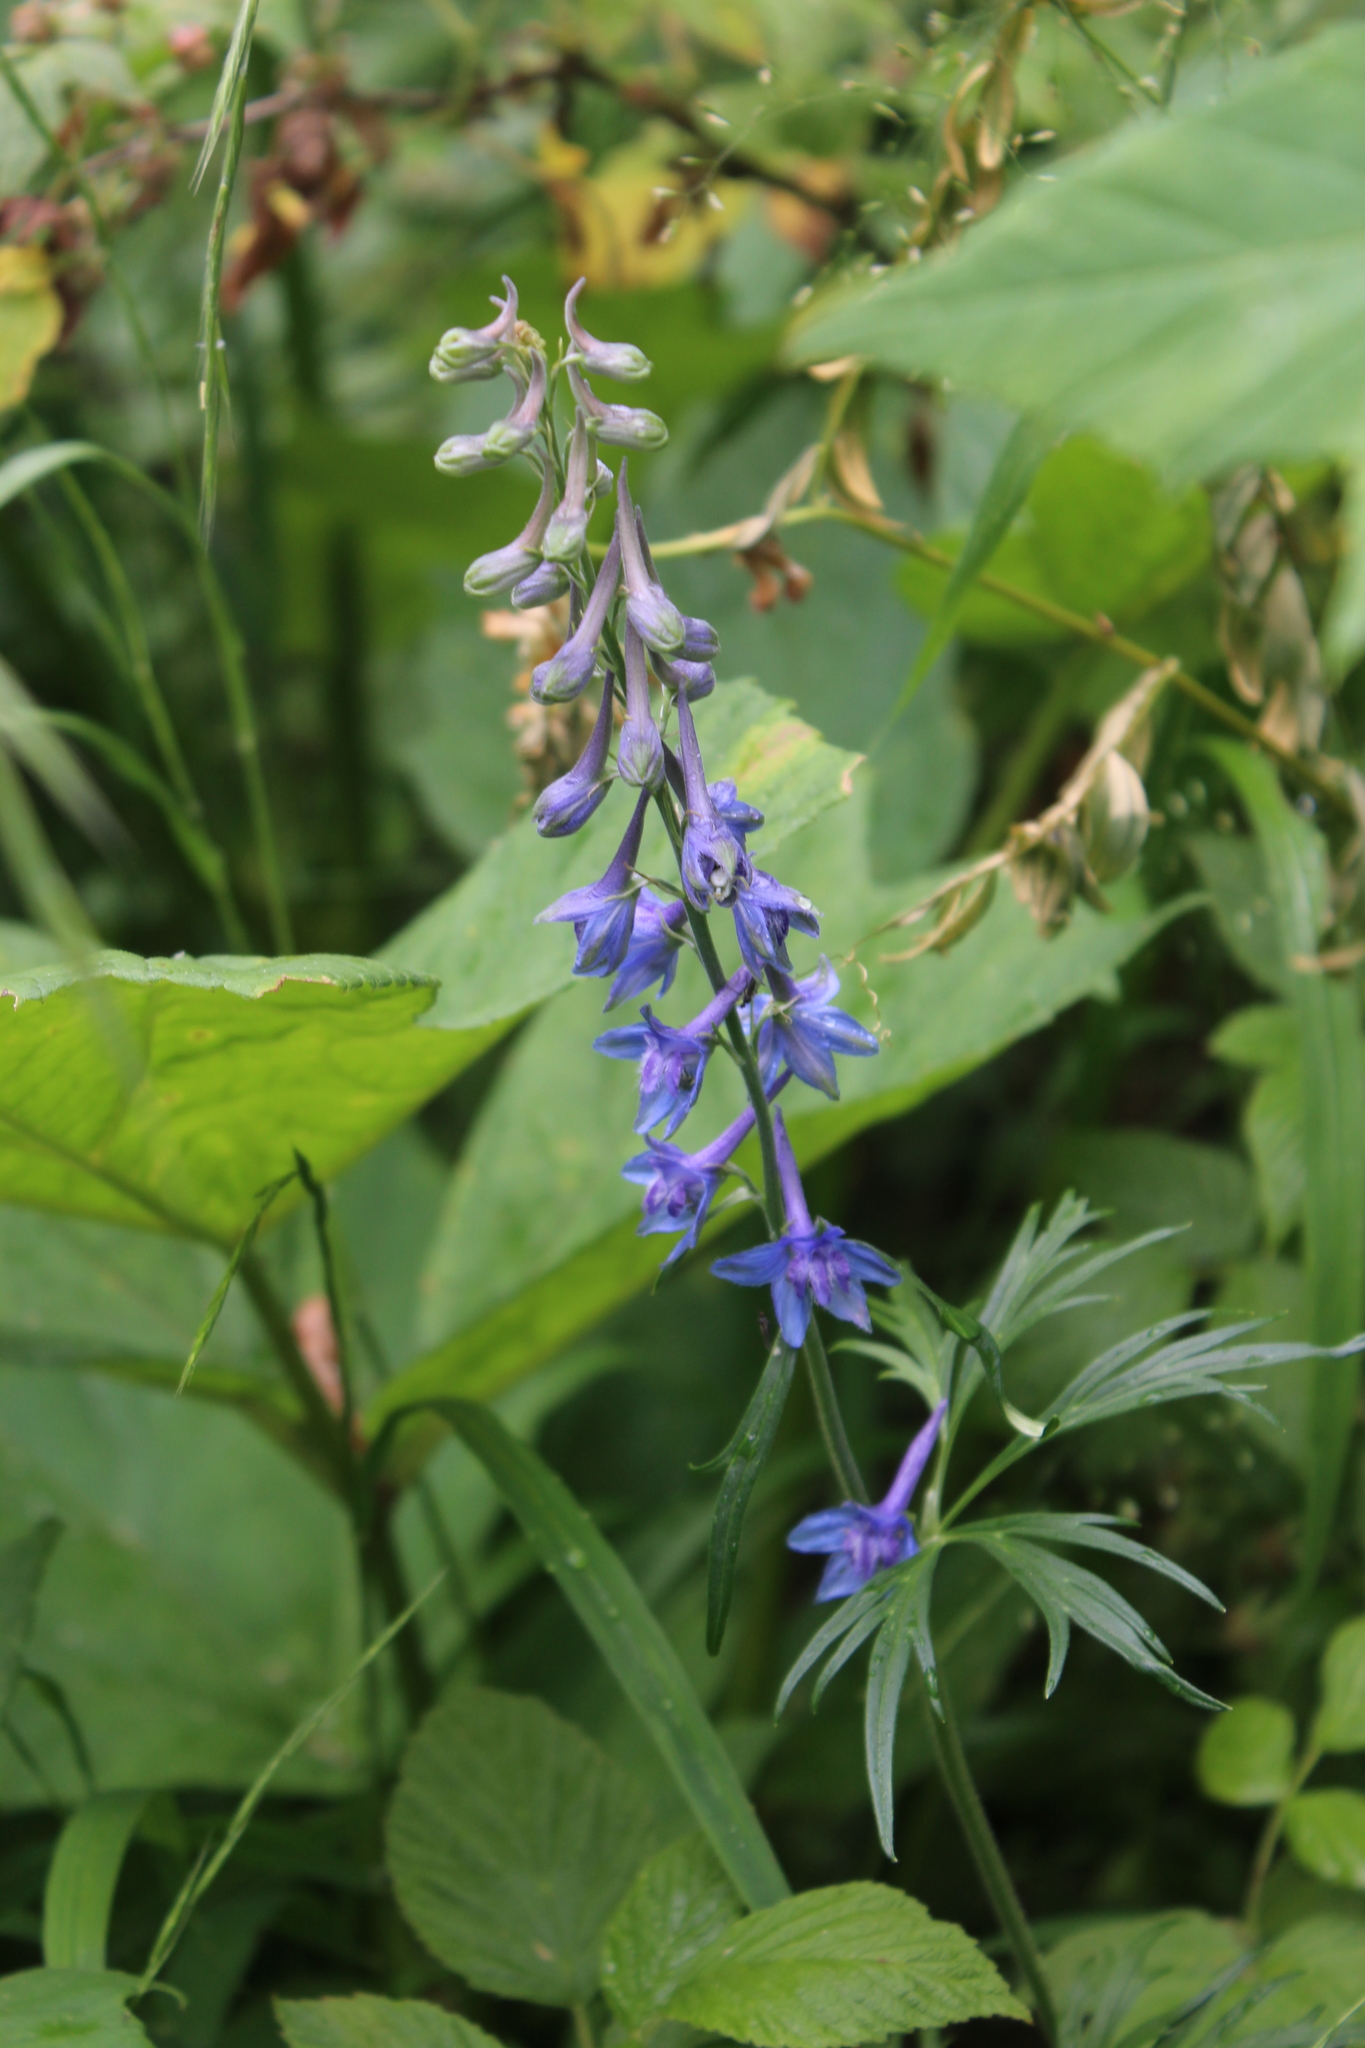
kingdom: Plantae
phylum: Tracheophyta
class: Magnoliopsida
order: Ranunculales
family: Ranunculaceae
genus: Delphinium
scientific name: Delphinium schmalhausenii
